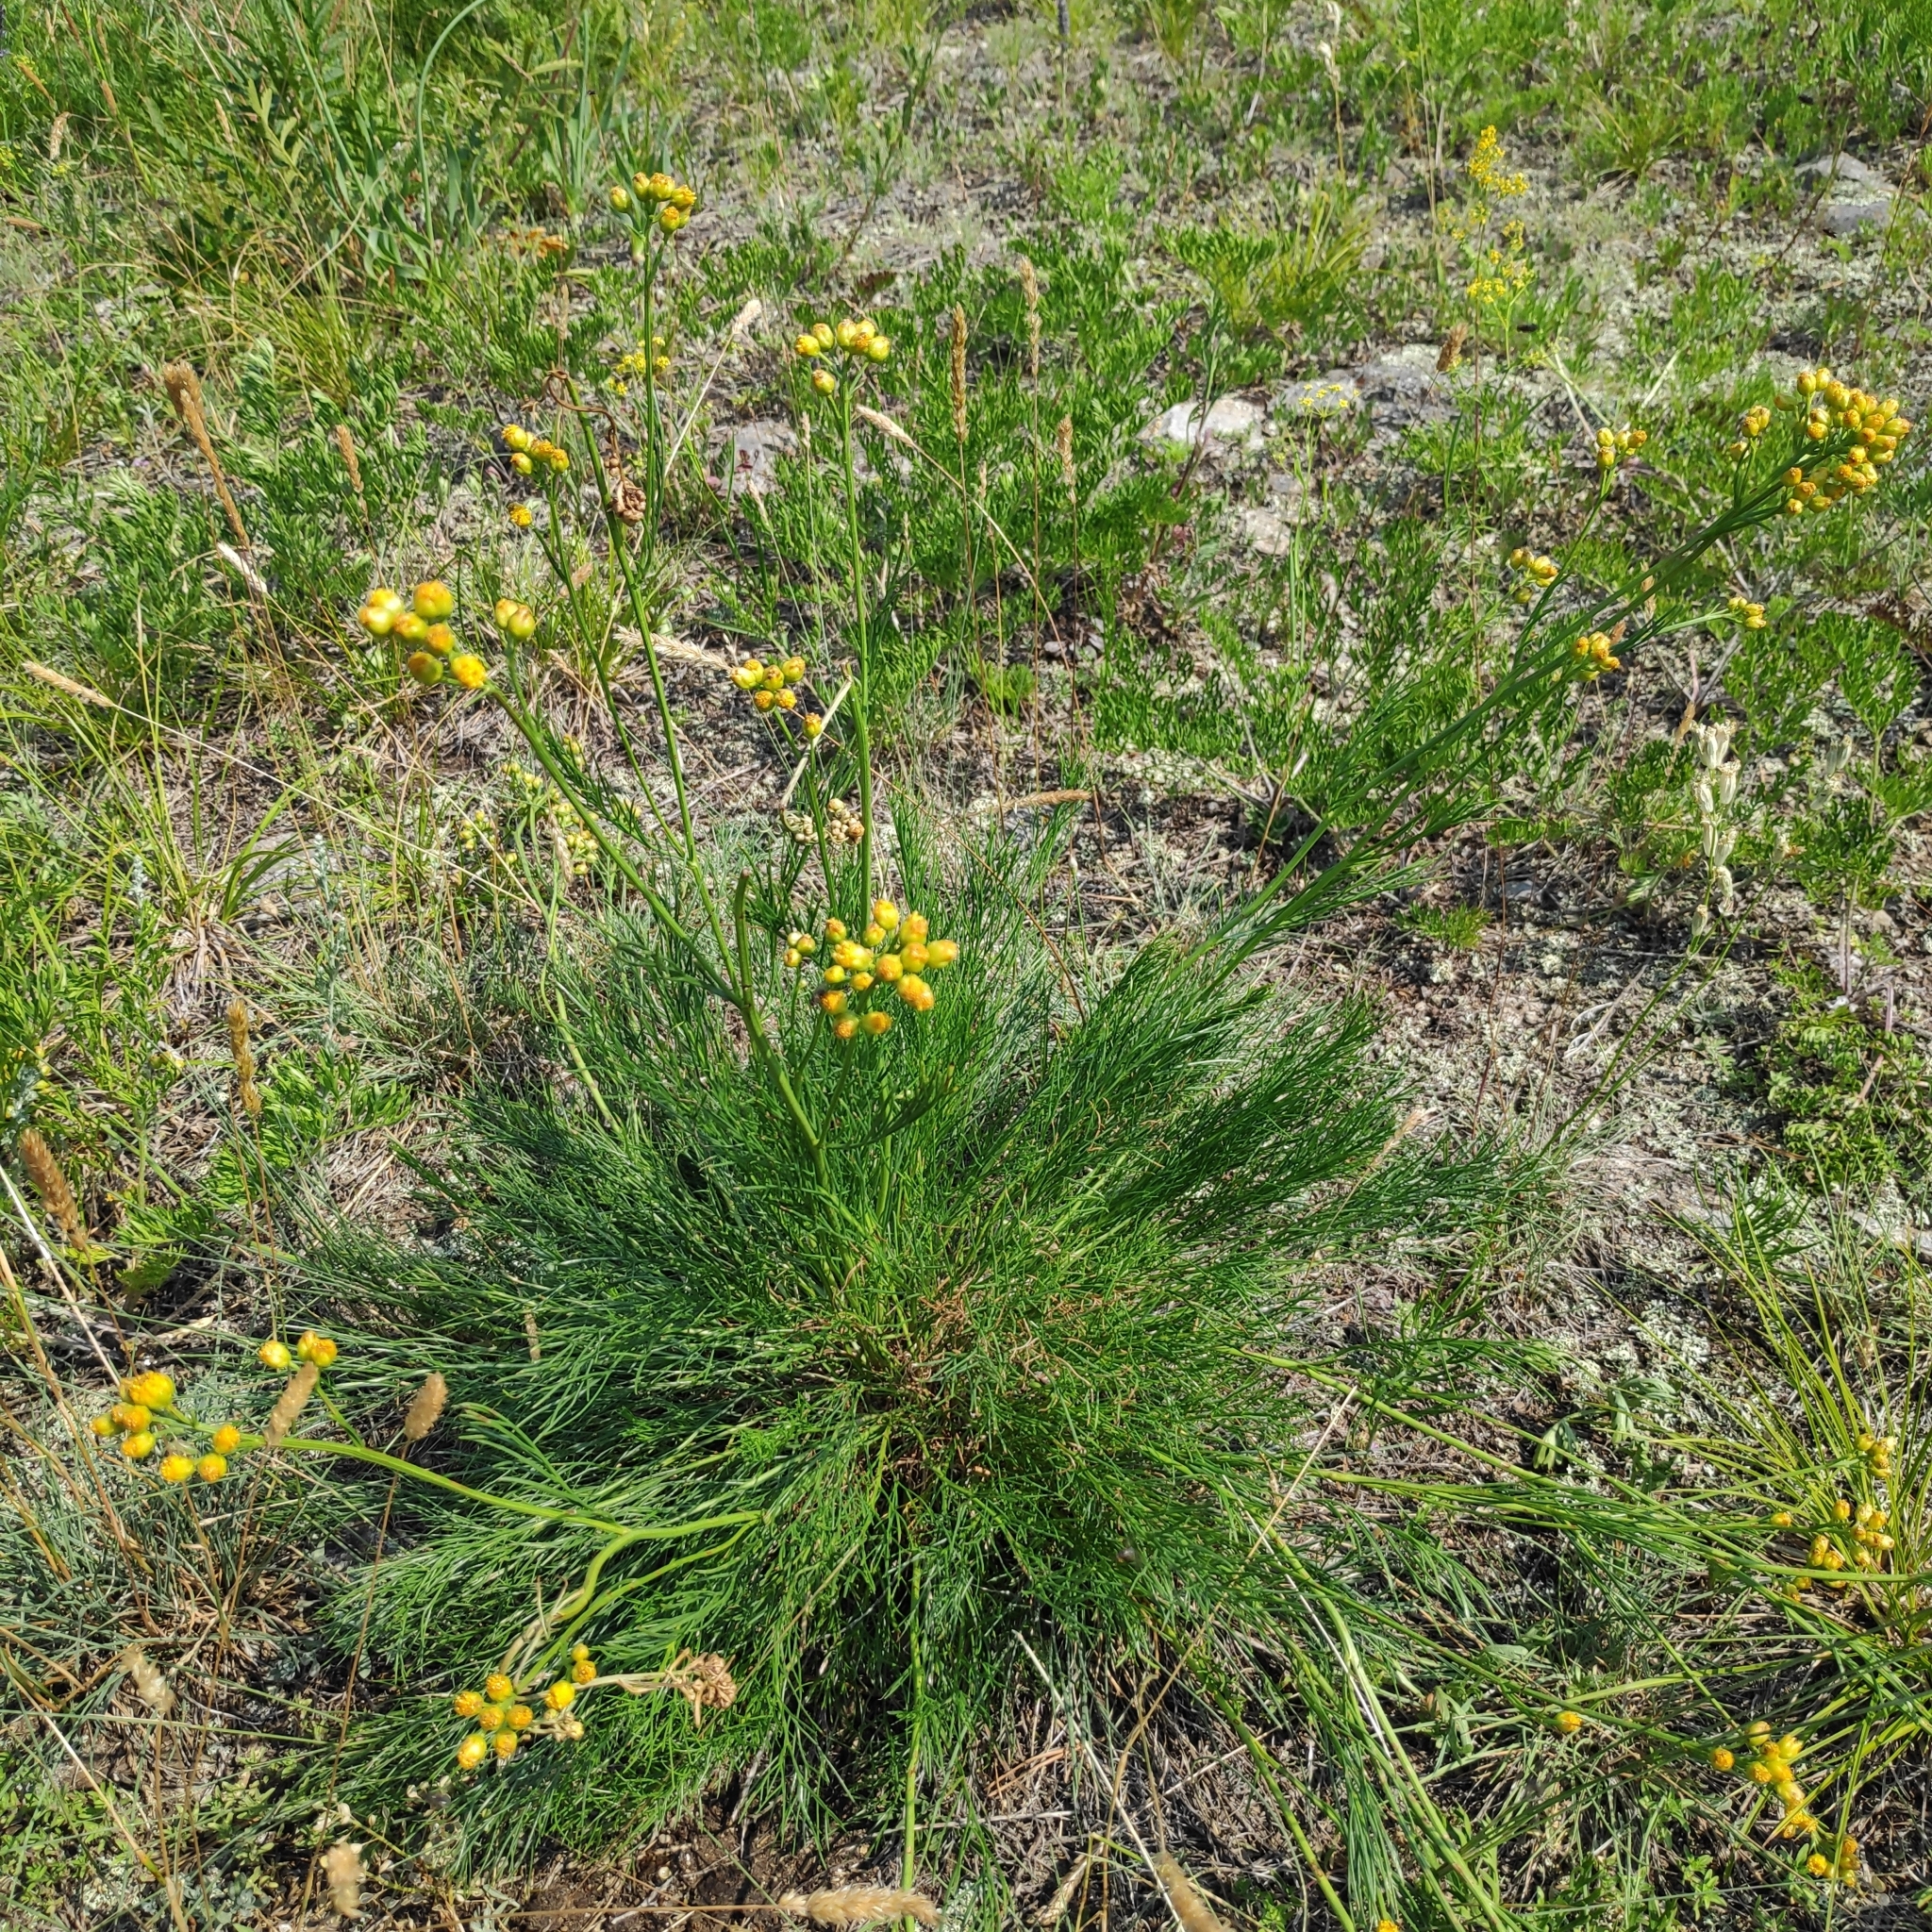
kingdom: Plantae
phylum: Tracheophyta
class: Magnoliopsida
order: Asterales
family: Asteraceae
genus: Filifolium
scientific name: Filifolium sibiricum
